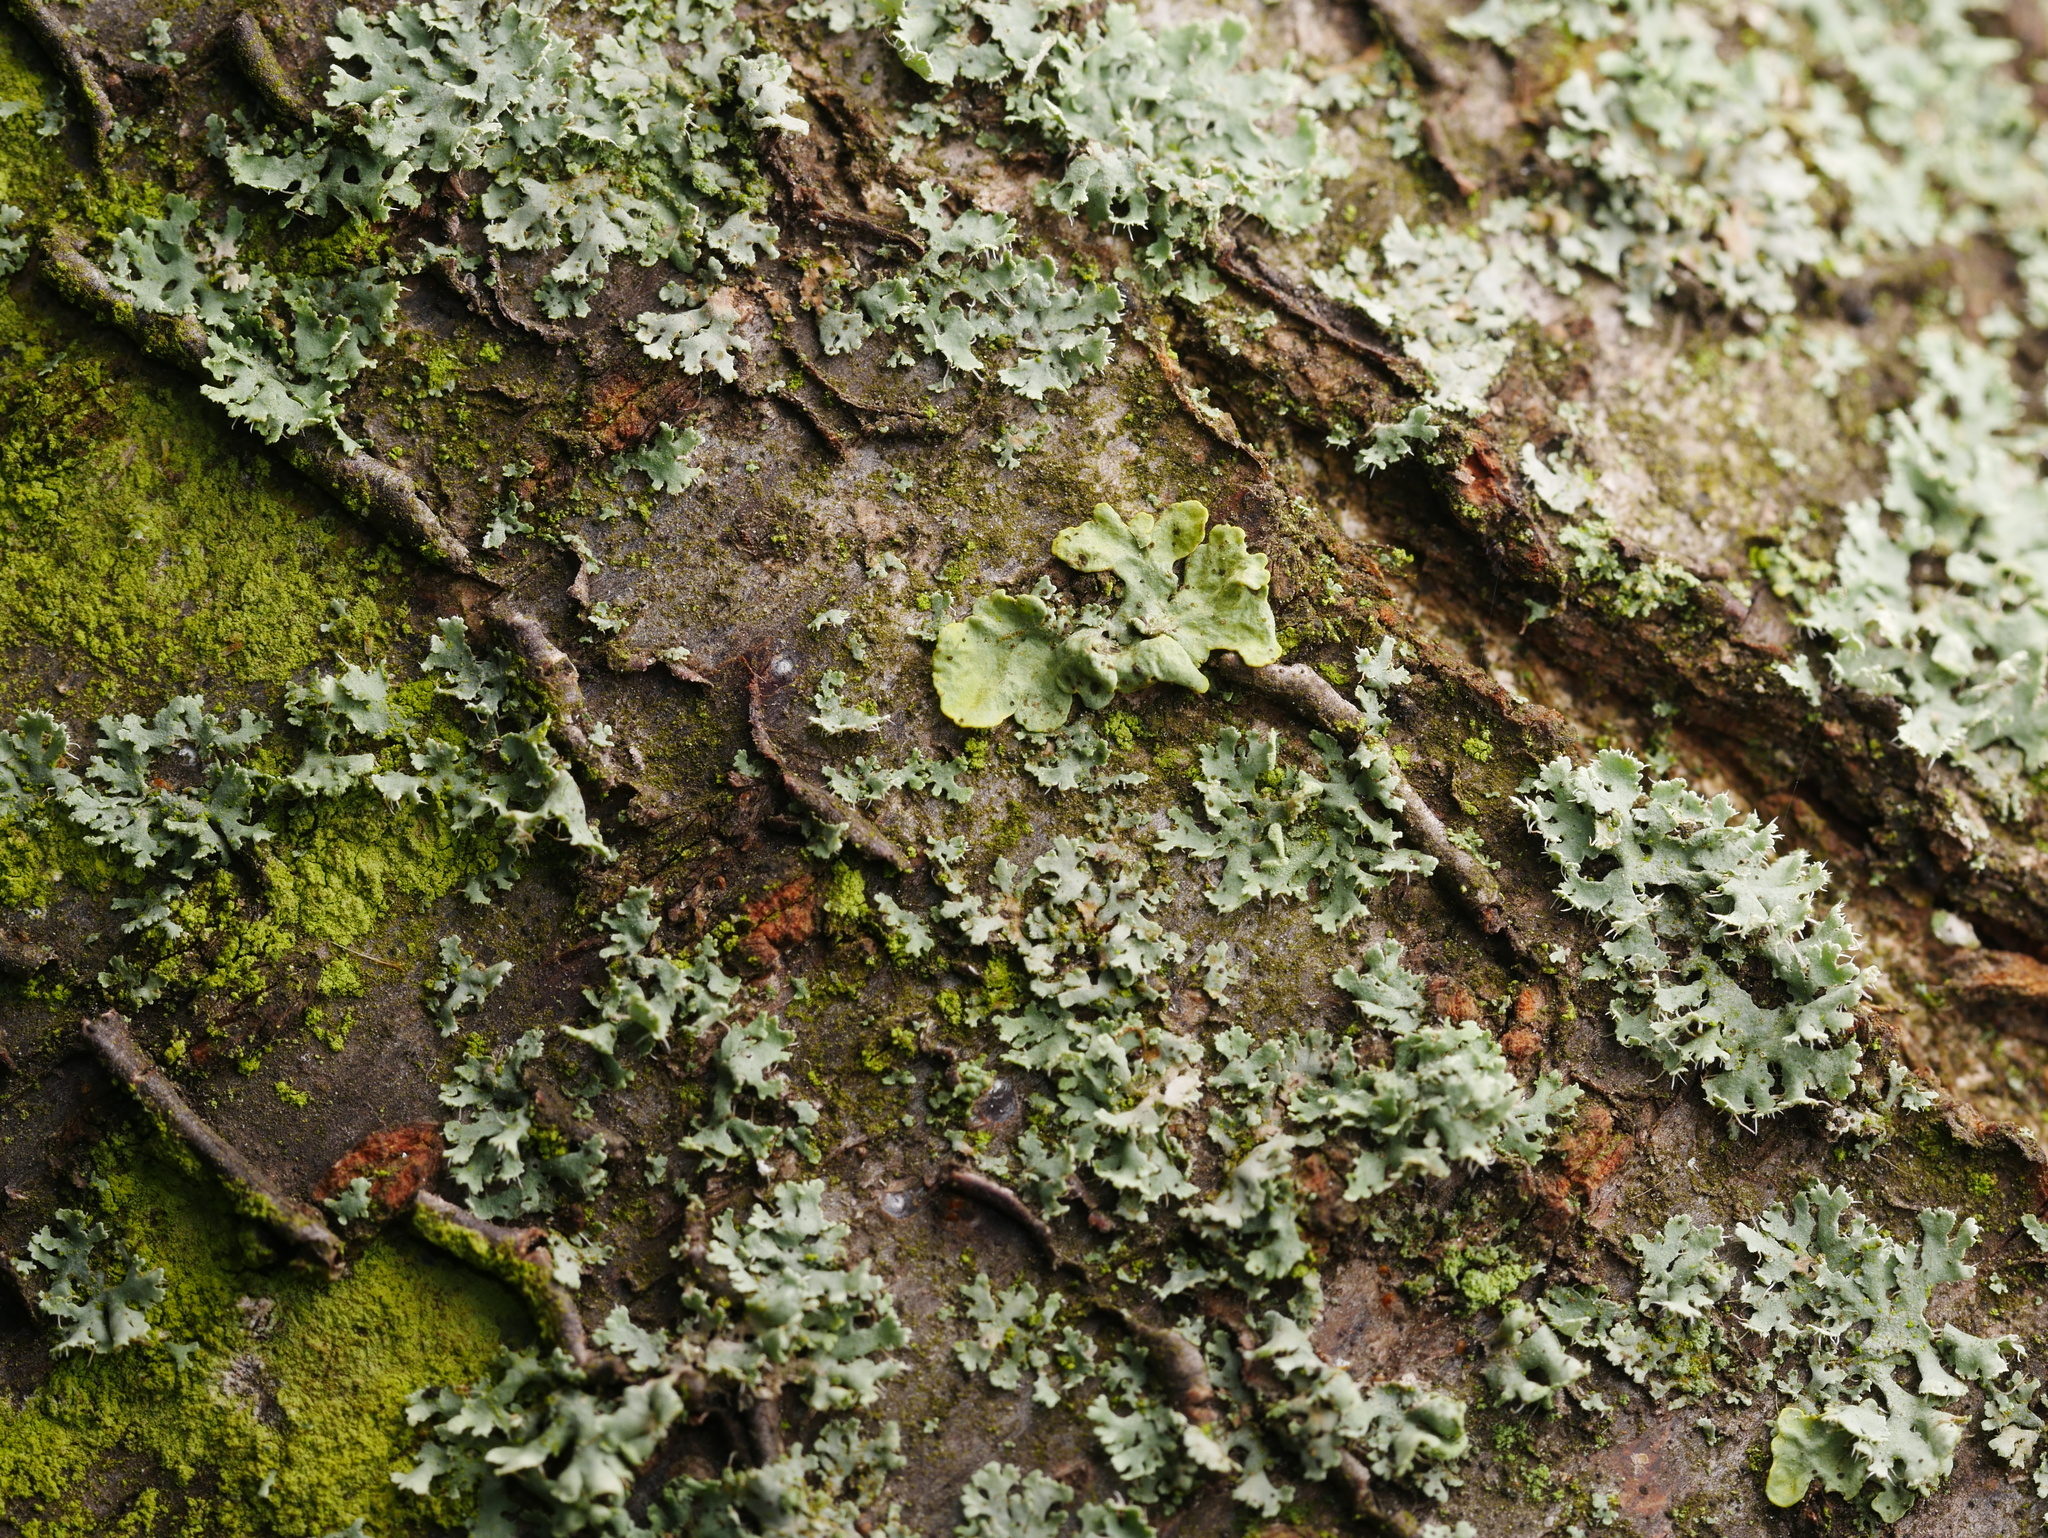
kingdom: Fungi
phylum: Ascomycota
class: Lecanoromycetes
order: Teloschistales
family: Teloschistaceae
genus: Xanthoria
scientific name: Xanthoria parietina
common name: Common orange lichen
